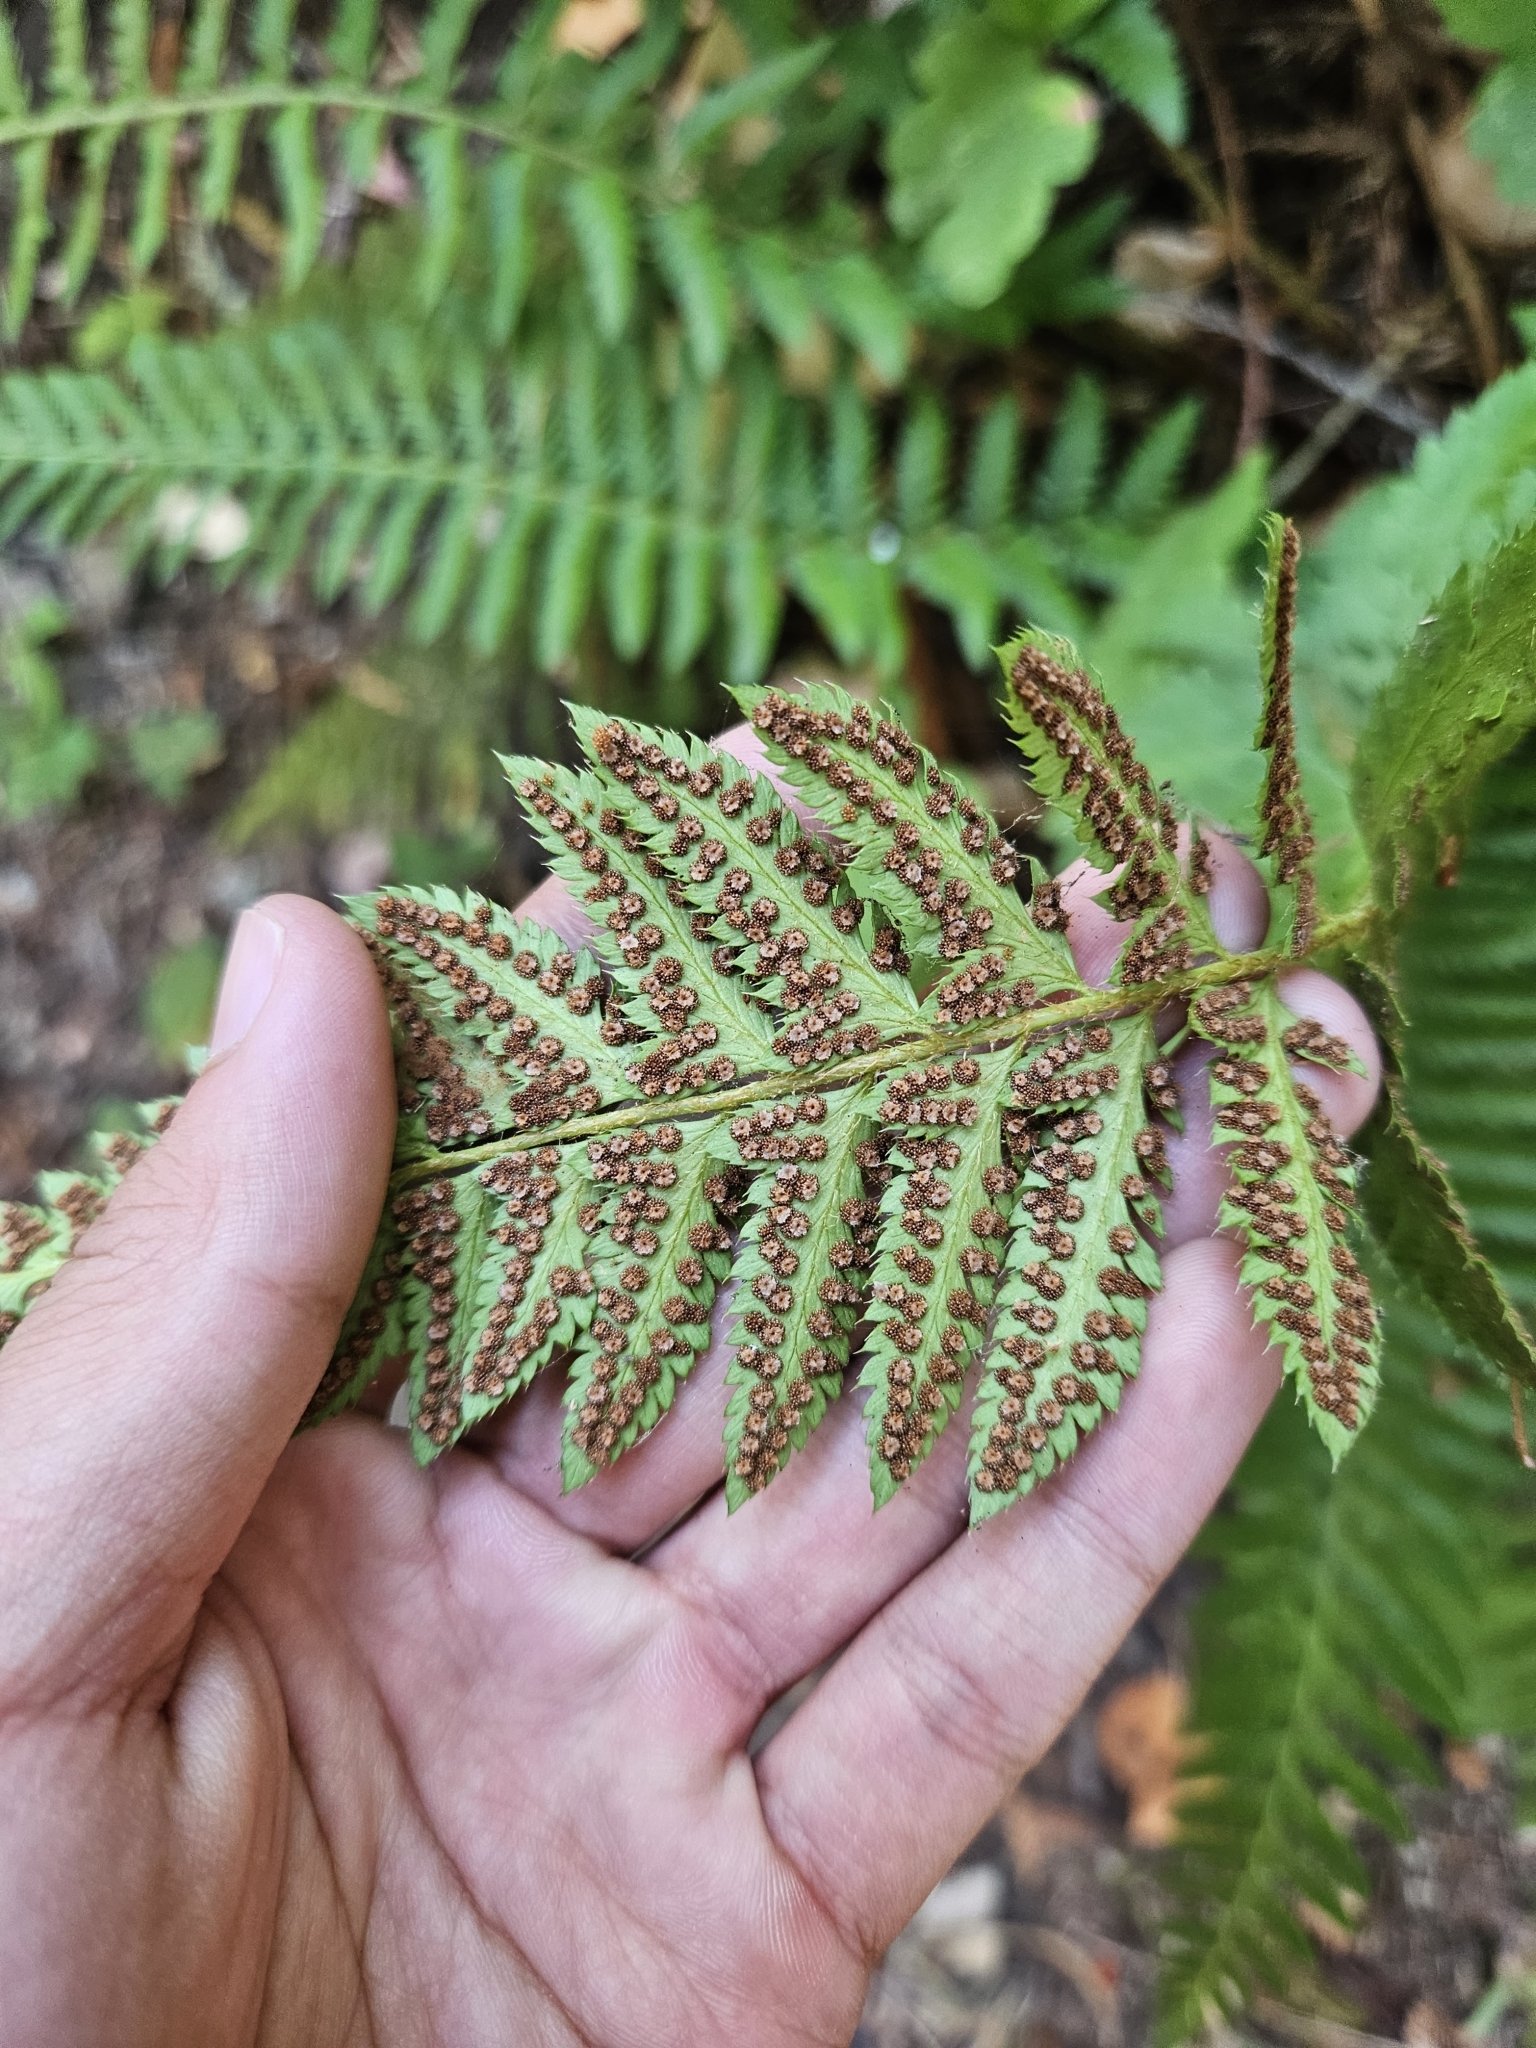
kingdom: Plantae
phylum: Tracheophyta
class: Polypodiopsida
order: Polypodiales
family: Dryopteridaceae
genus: Polystichum
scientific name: Polystichum californicum
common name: California sword fern
